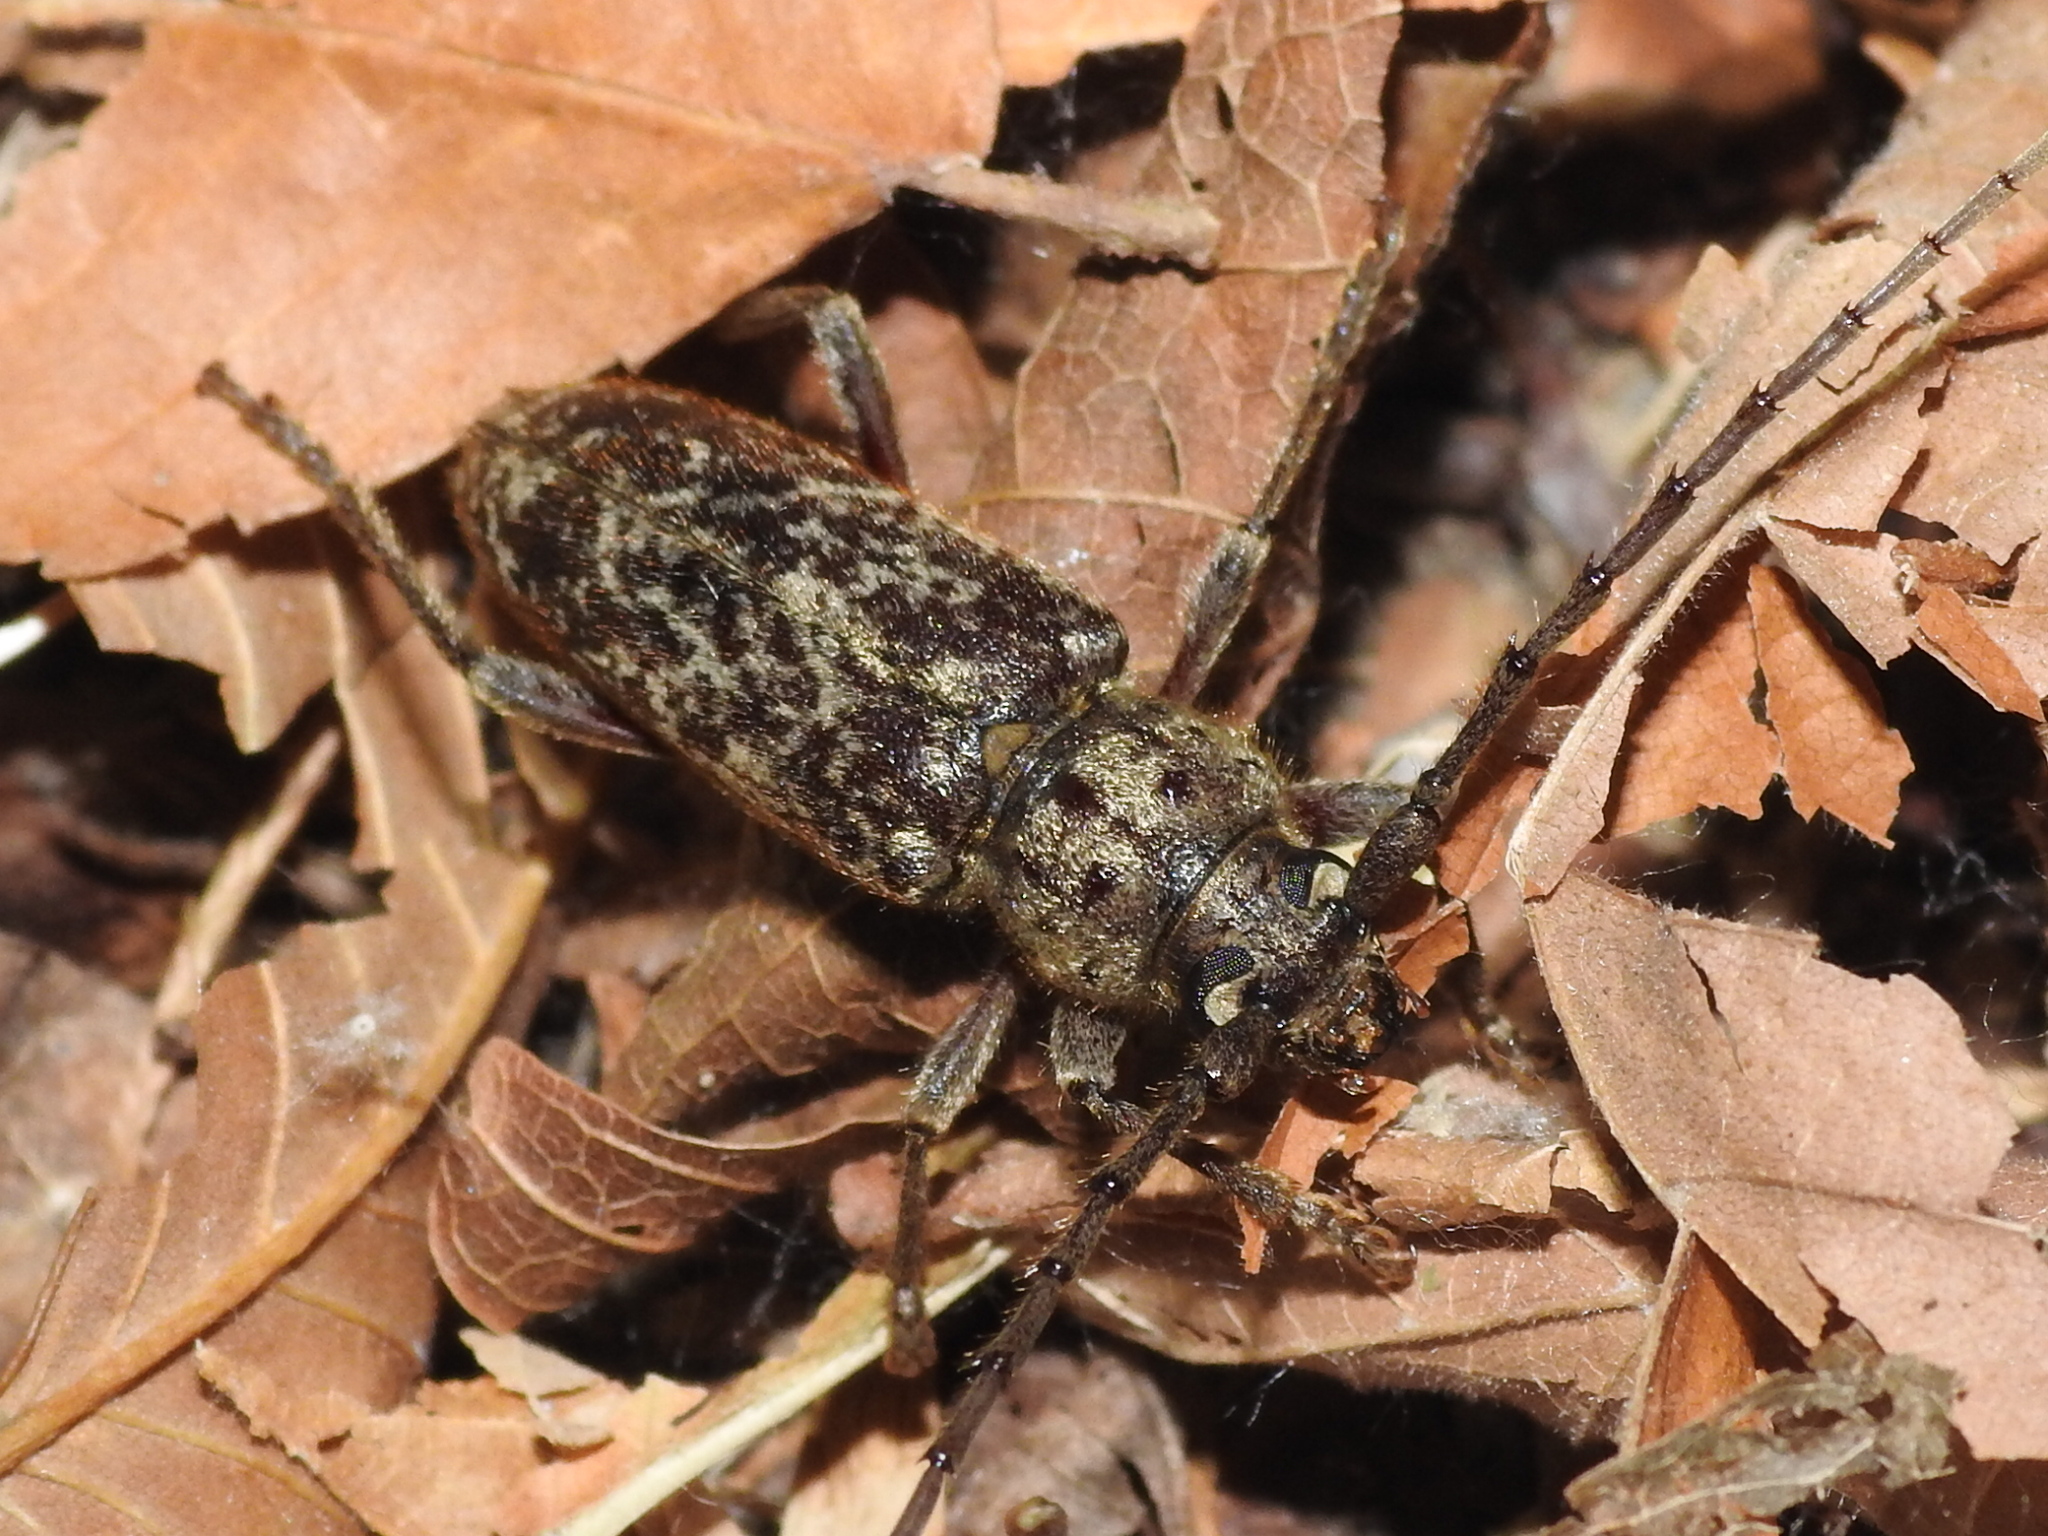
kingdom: Animalia
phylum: Arthropoda
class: Insecta
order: Coleoptera
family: Cerambycidae
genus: Enaphalodes
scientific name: Enaphalodes atomarius
